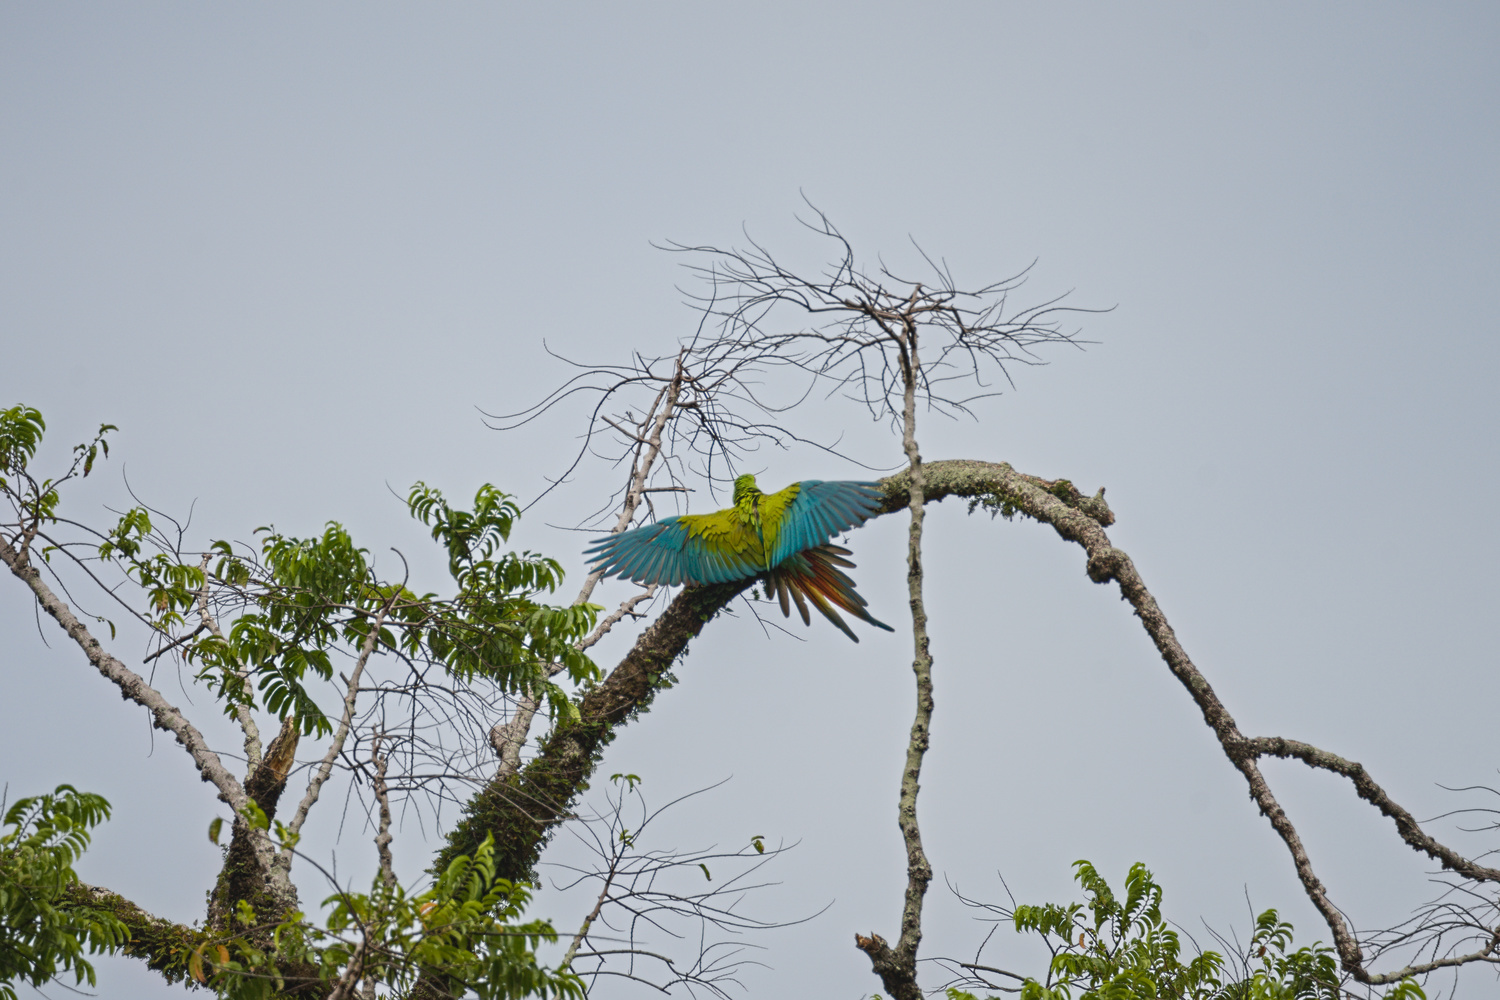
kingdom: Animalia
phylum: Chordata
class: Aves
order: Psittaciformes
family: Psittacidae
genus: Ara
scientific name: Ara ambiguus
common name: Great green macaw
